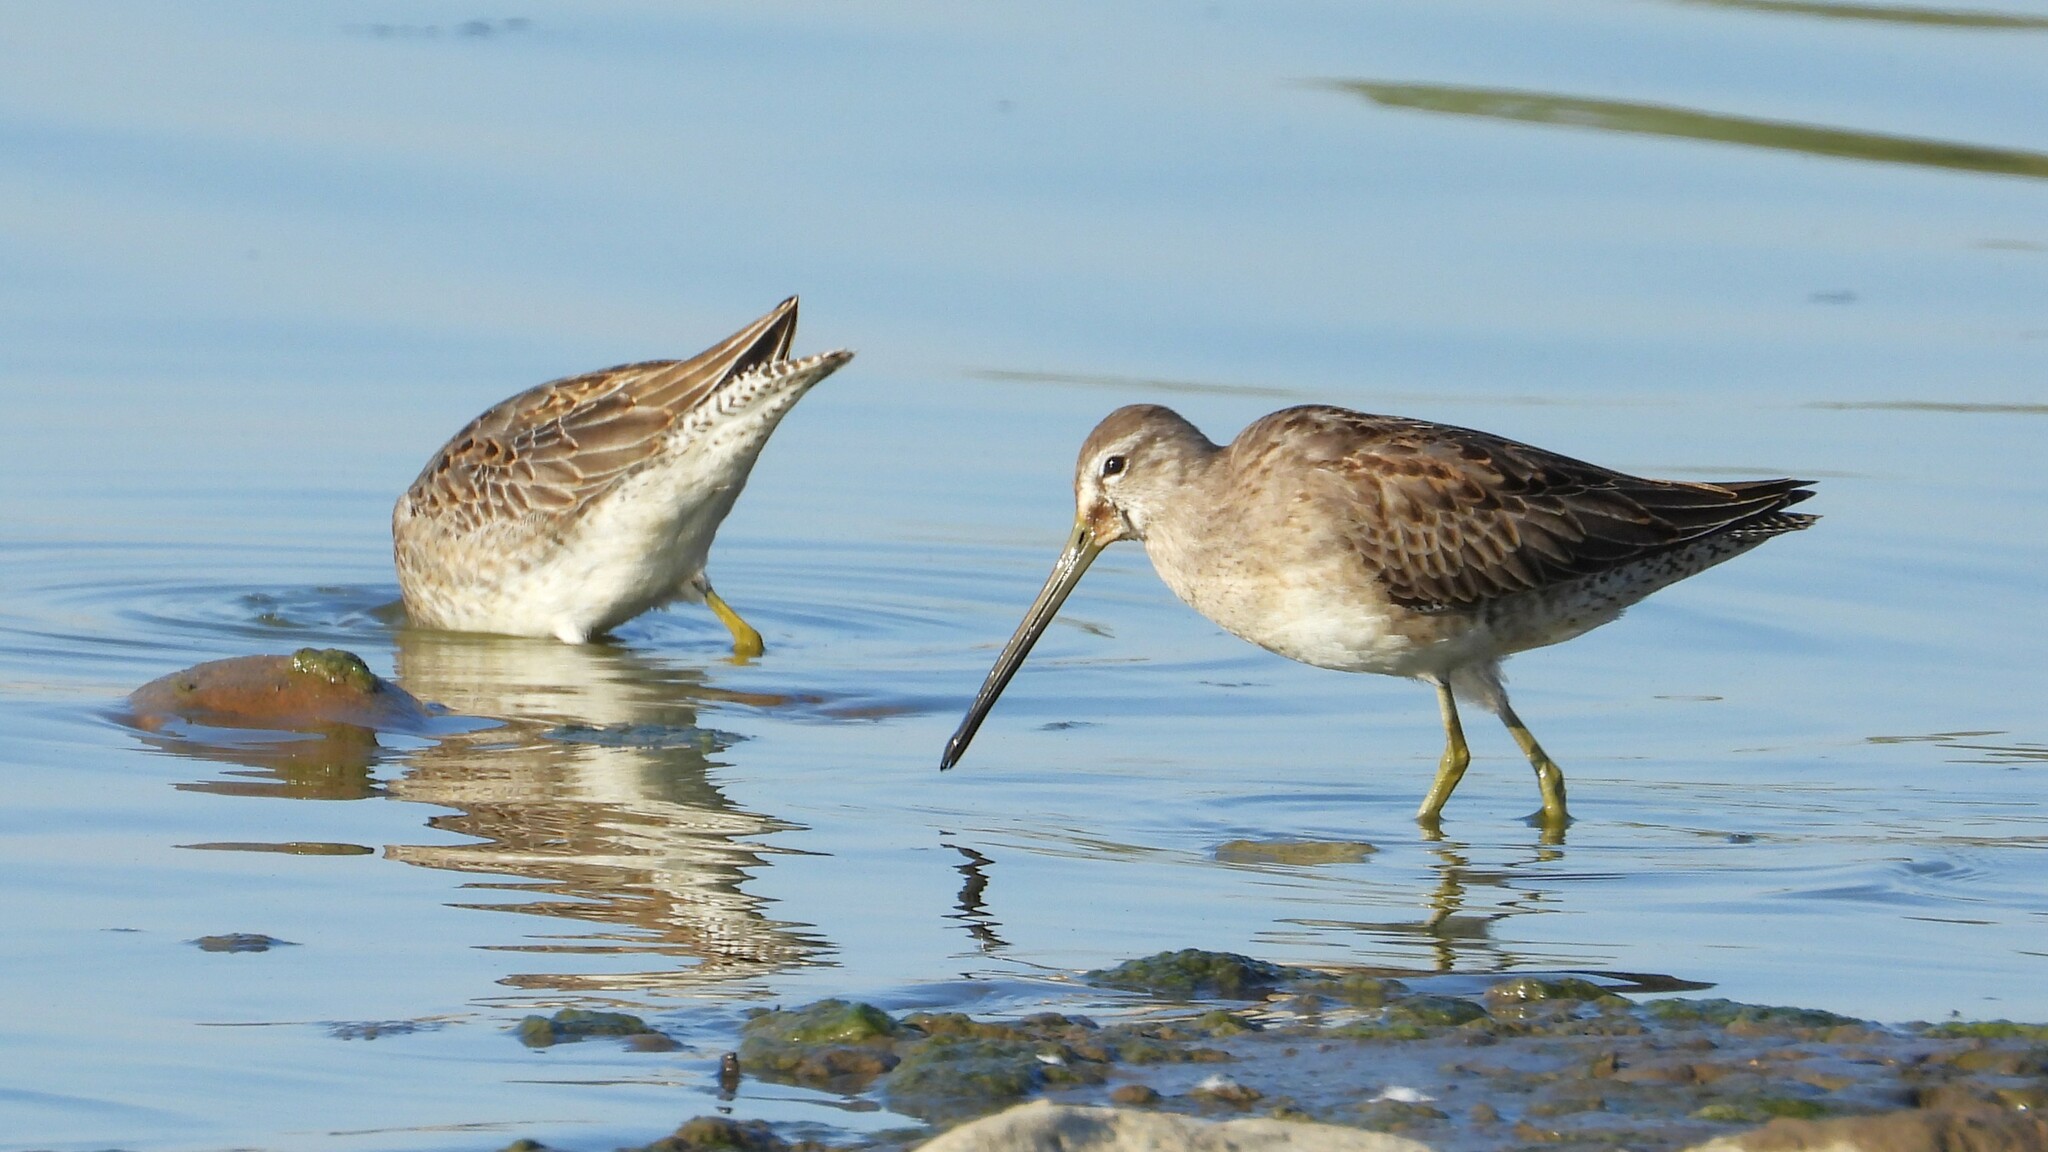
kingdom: Animalia
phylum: Chordata
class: Aves
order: Charadriiformes
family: Scolopacidae
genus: Limnodromus
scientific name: Limnodromus scolopaceus
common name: Long-billed dowitcher
